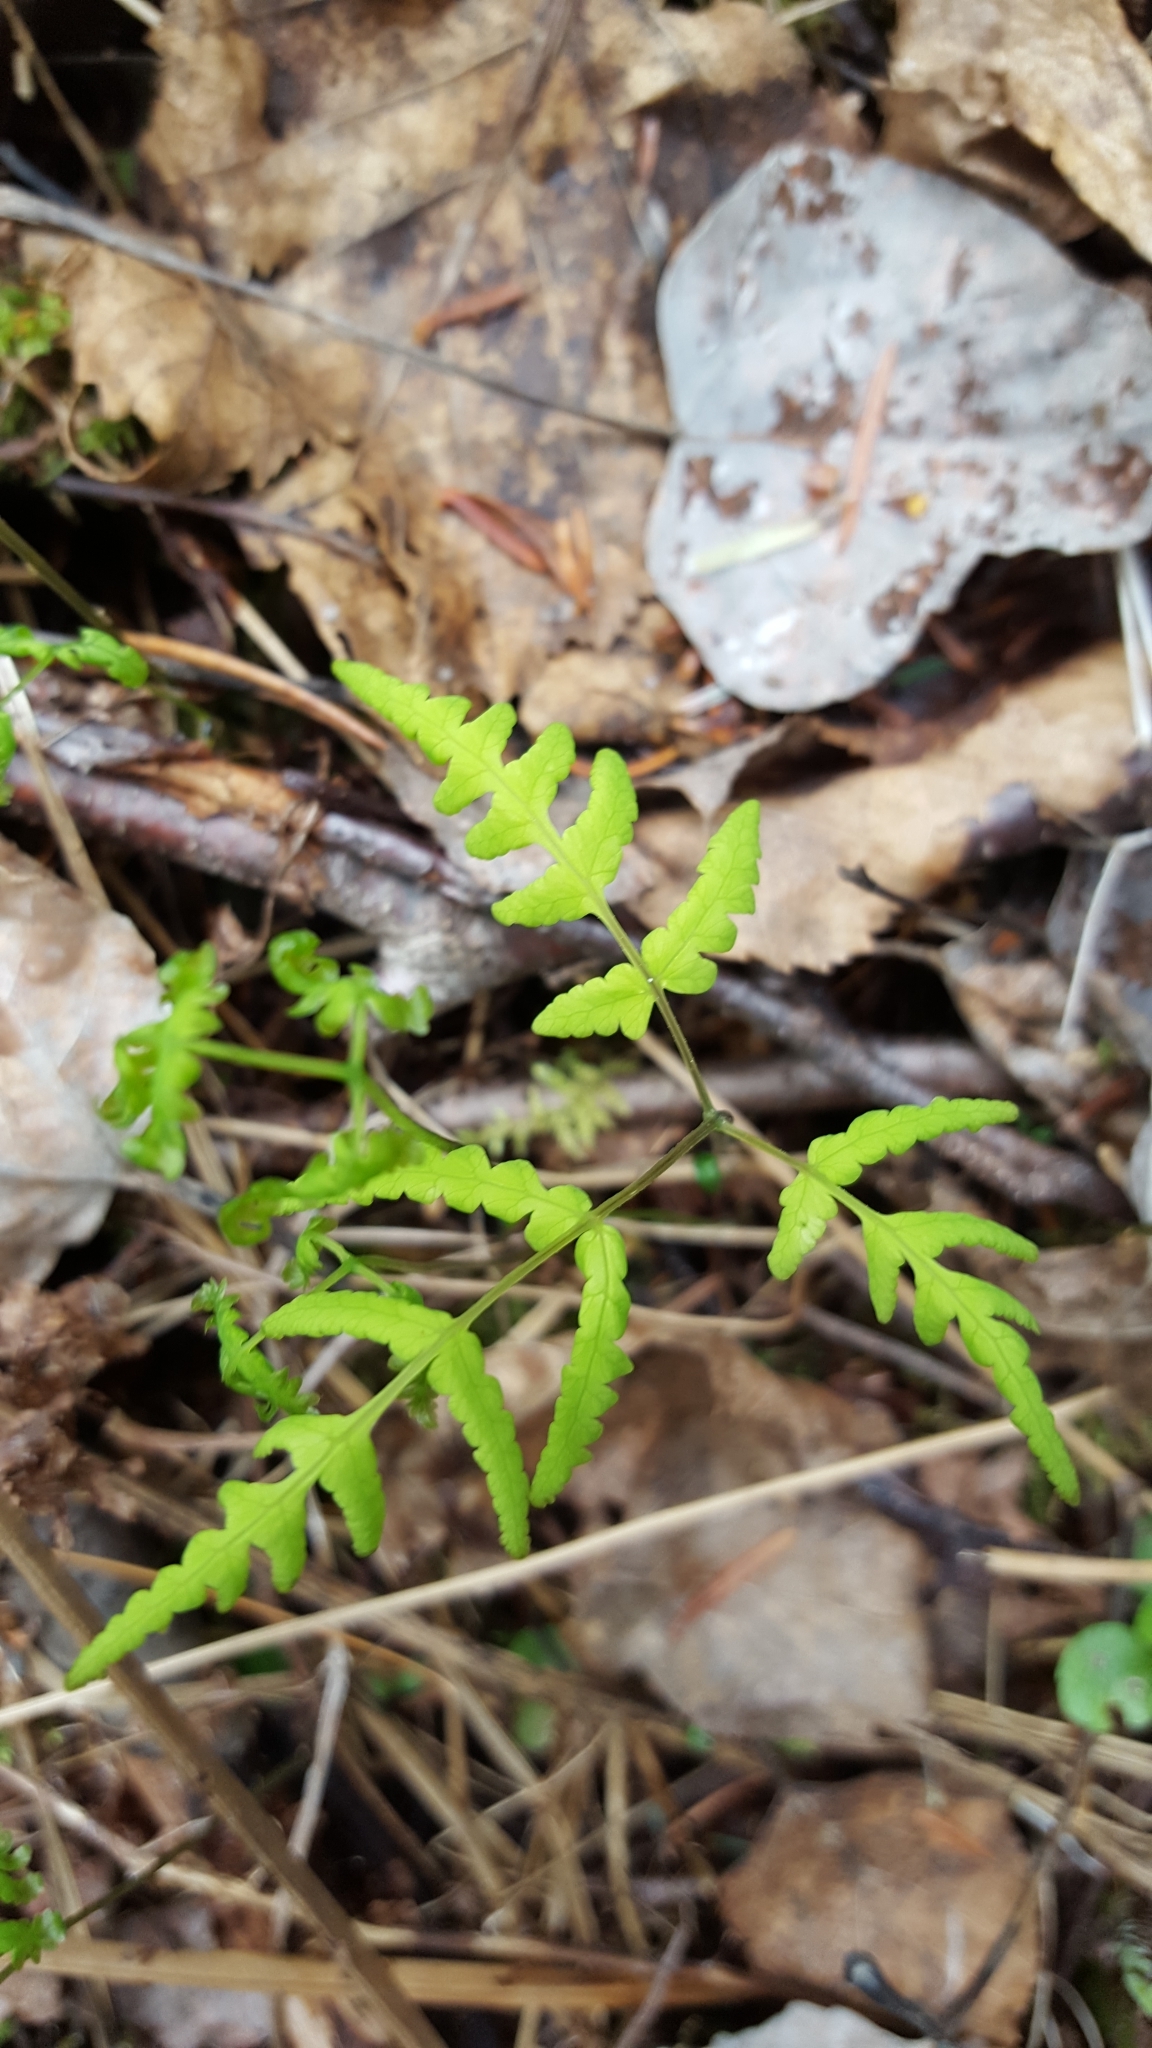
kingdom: Plantae
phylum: Tracheophyta
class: Polypodiopsida
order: Polypodiales
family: Cystopteridaceae
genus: Gymnocarpium
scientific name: Gymnocarpium dryopteris
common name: Oak fern
